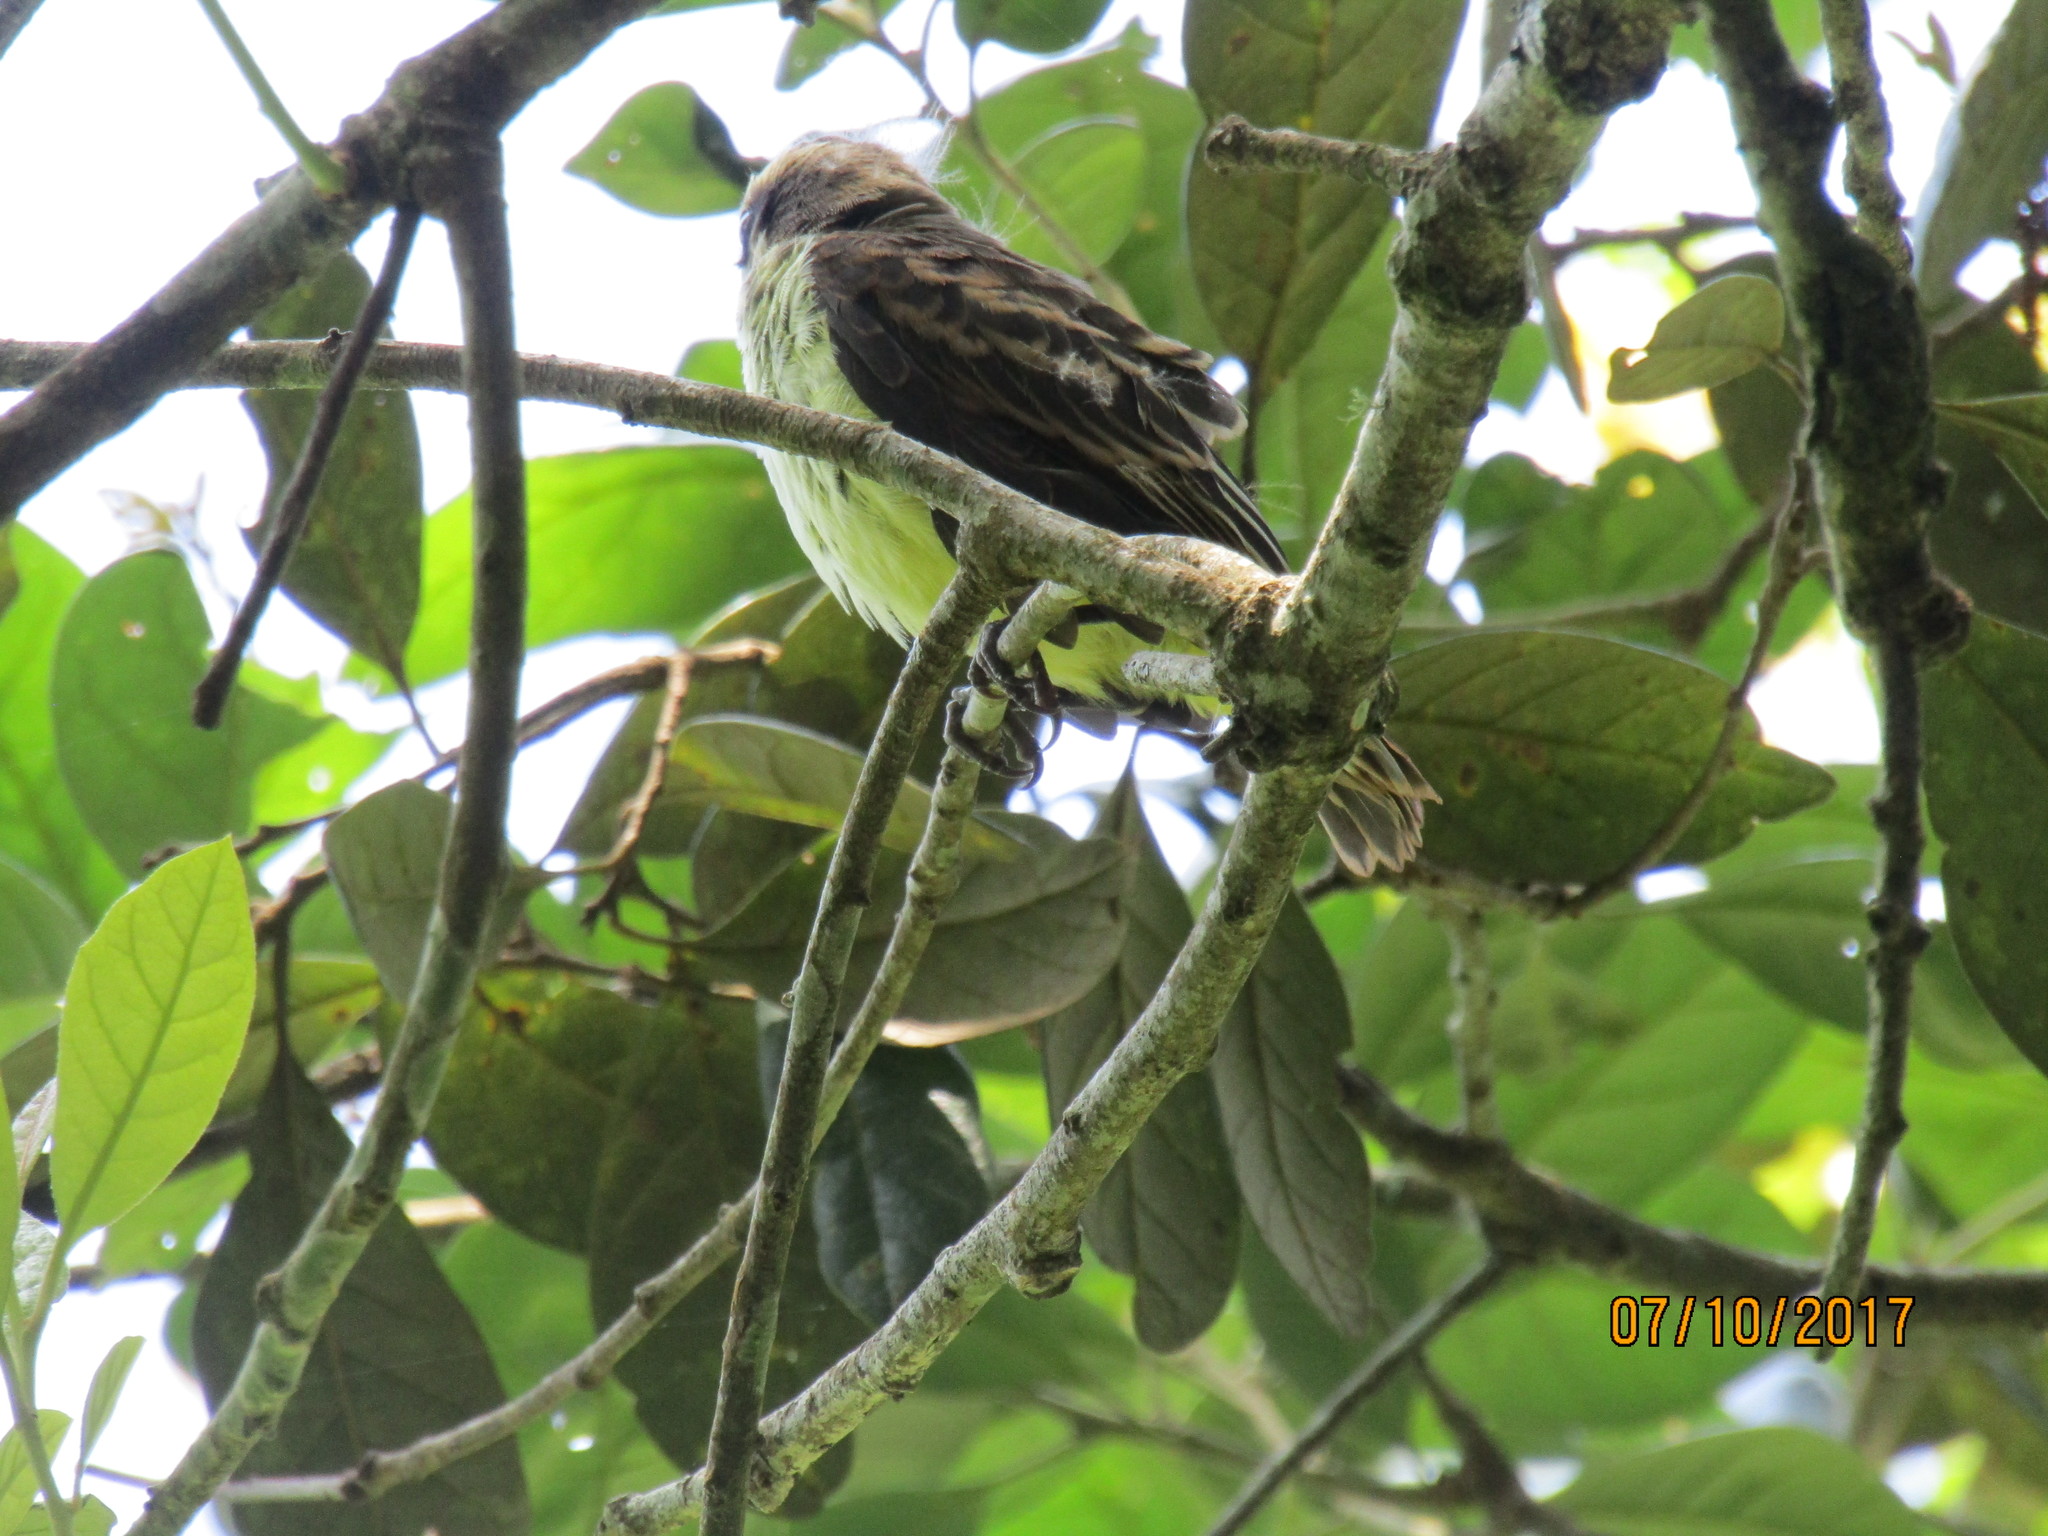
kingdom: Animalia
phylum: Chordata
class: Aves
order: Passeriformes
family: Tyrannidae
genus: Myiodynastes
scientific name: Myiodynastes luteiventris
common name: Sulphur-bellied flycatcher
